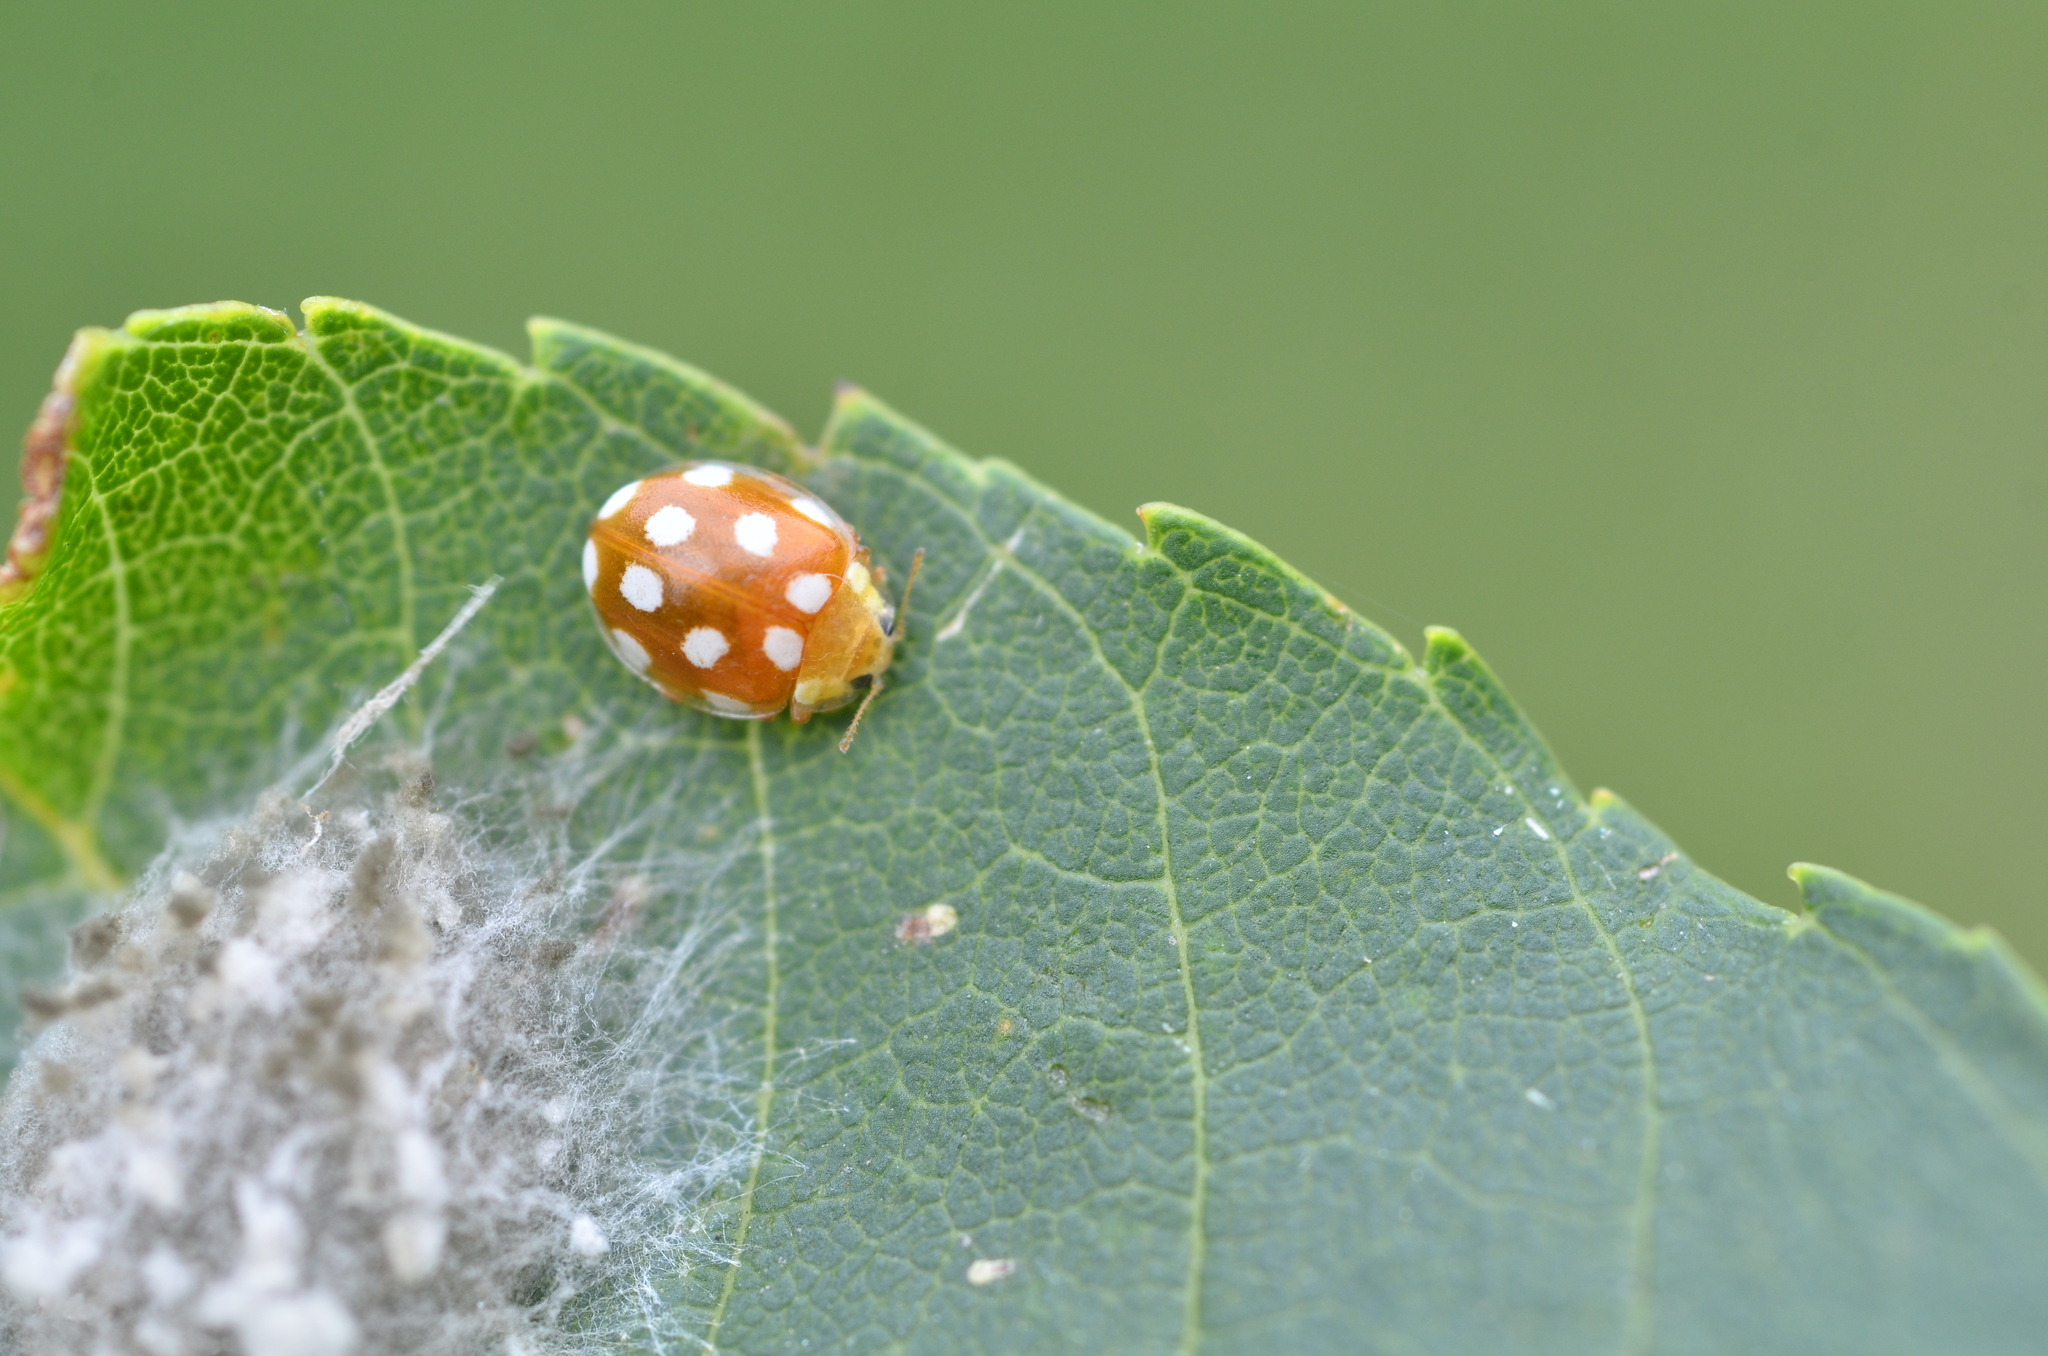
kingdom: Animalia
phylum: Arthropoda
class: Insecta
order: Coleoptera
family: Coccinellidae
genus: Vibidia
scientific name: Vibidia duodecimguttata
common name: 12-spot ladybird
